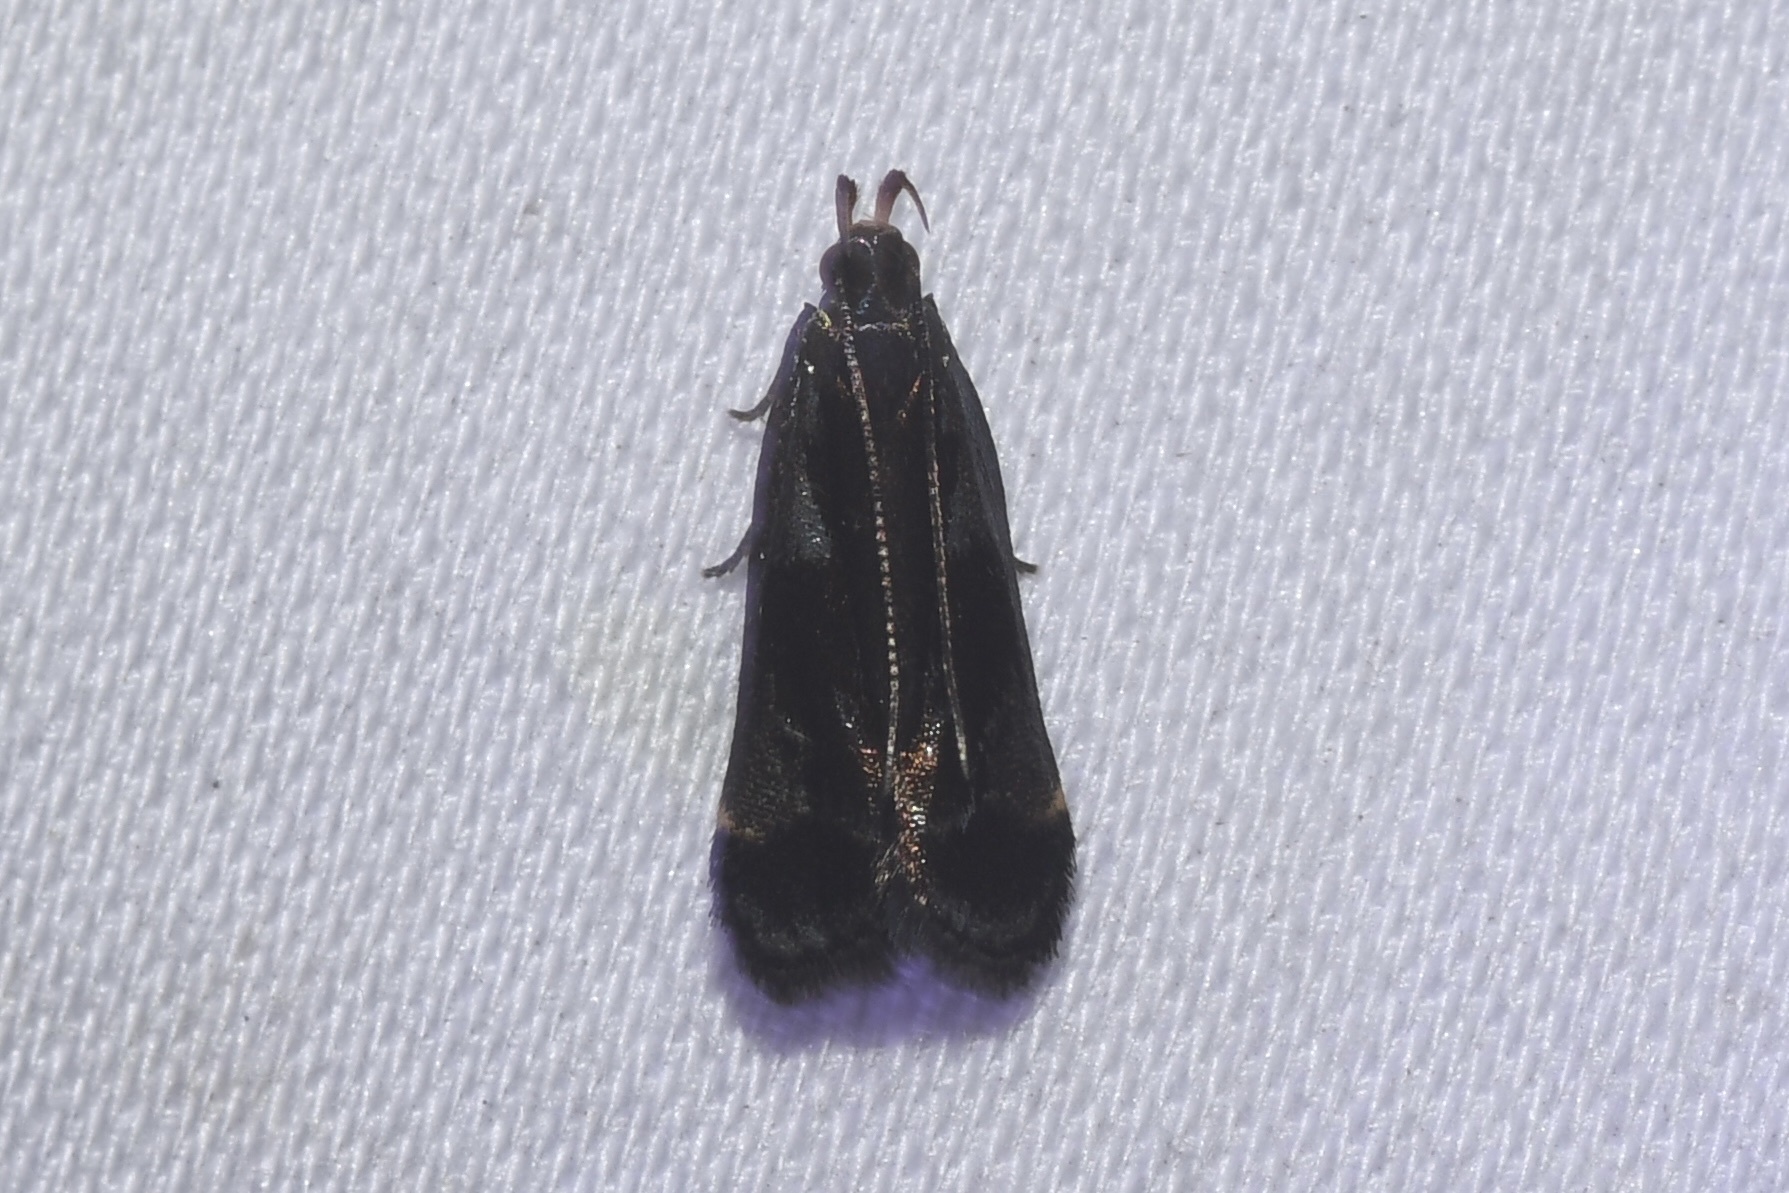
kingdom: Animalia
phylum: Arthropoda
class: Insecta
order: Lepidoptera
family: Gelechiidae
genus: Dichomeris
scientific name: Dichomeris ochripalpella
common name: Shining dichomeris moth
